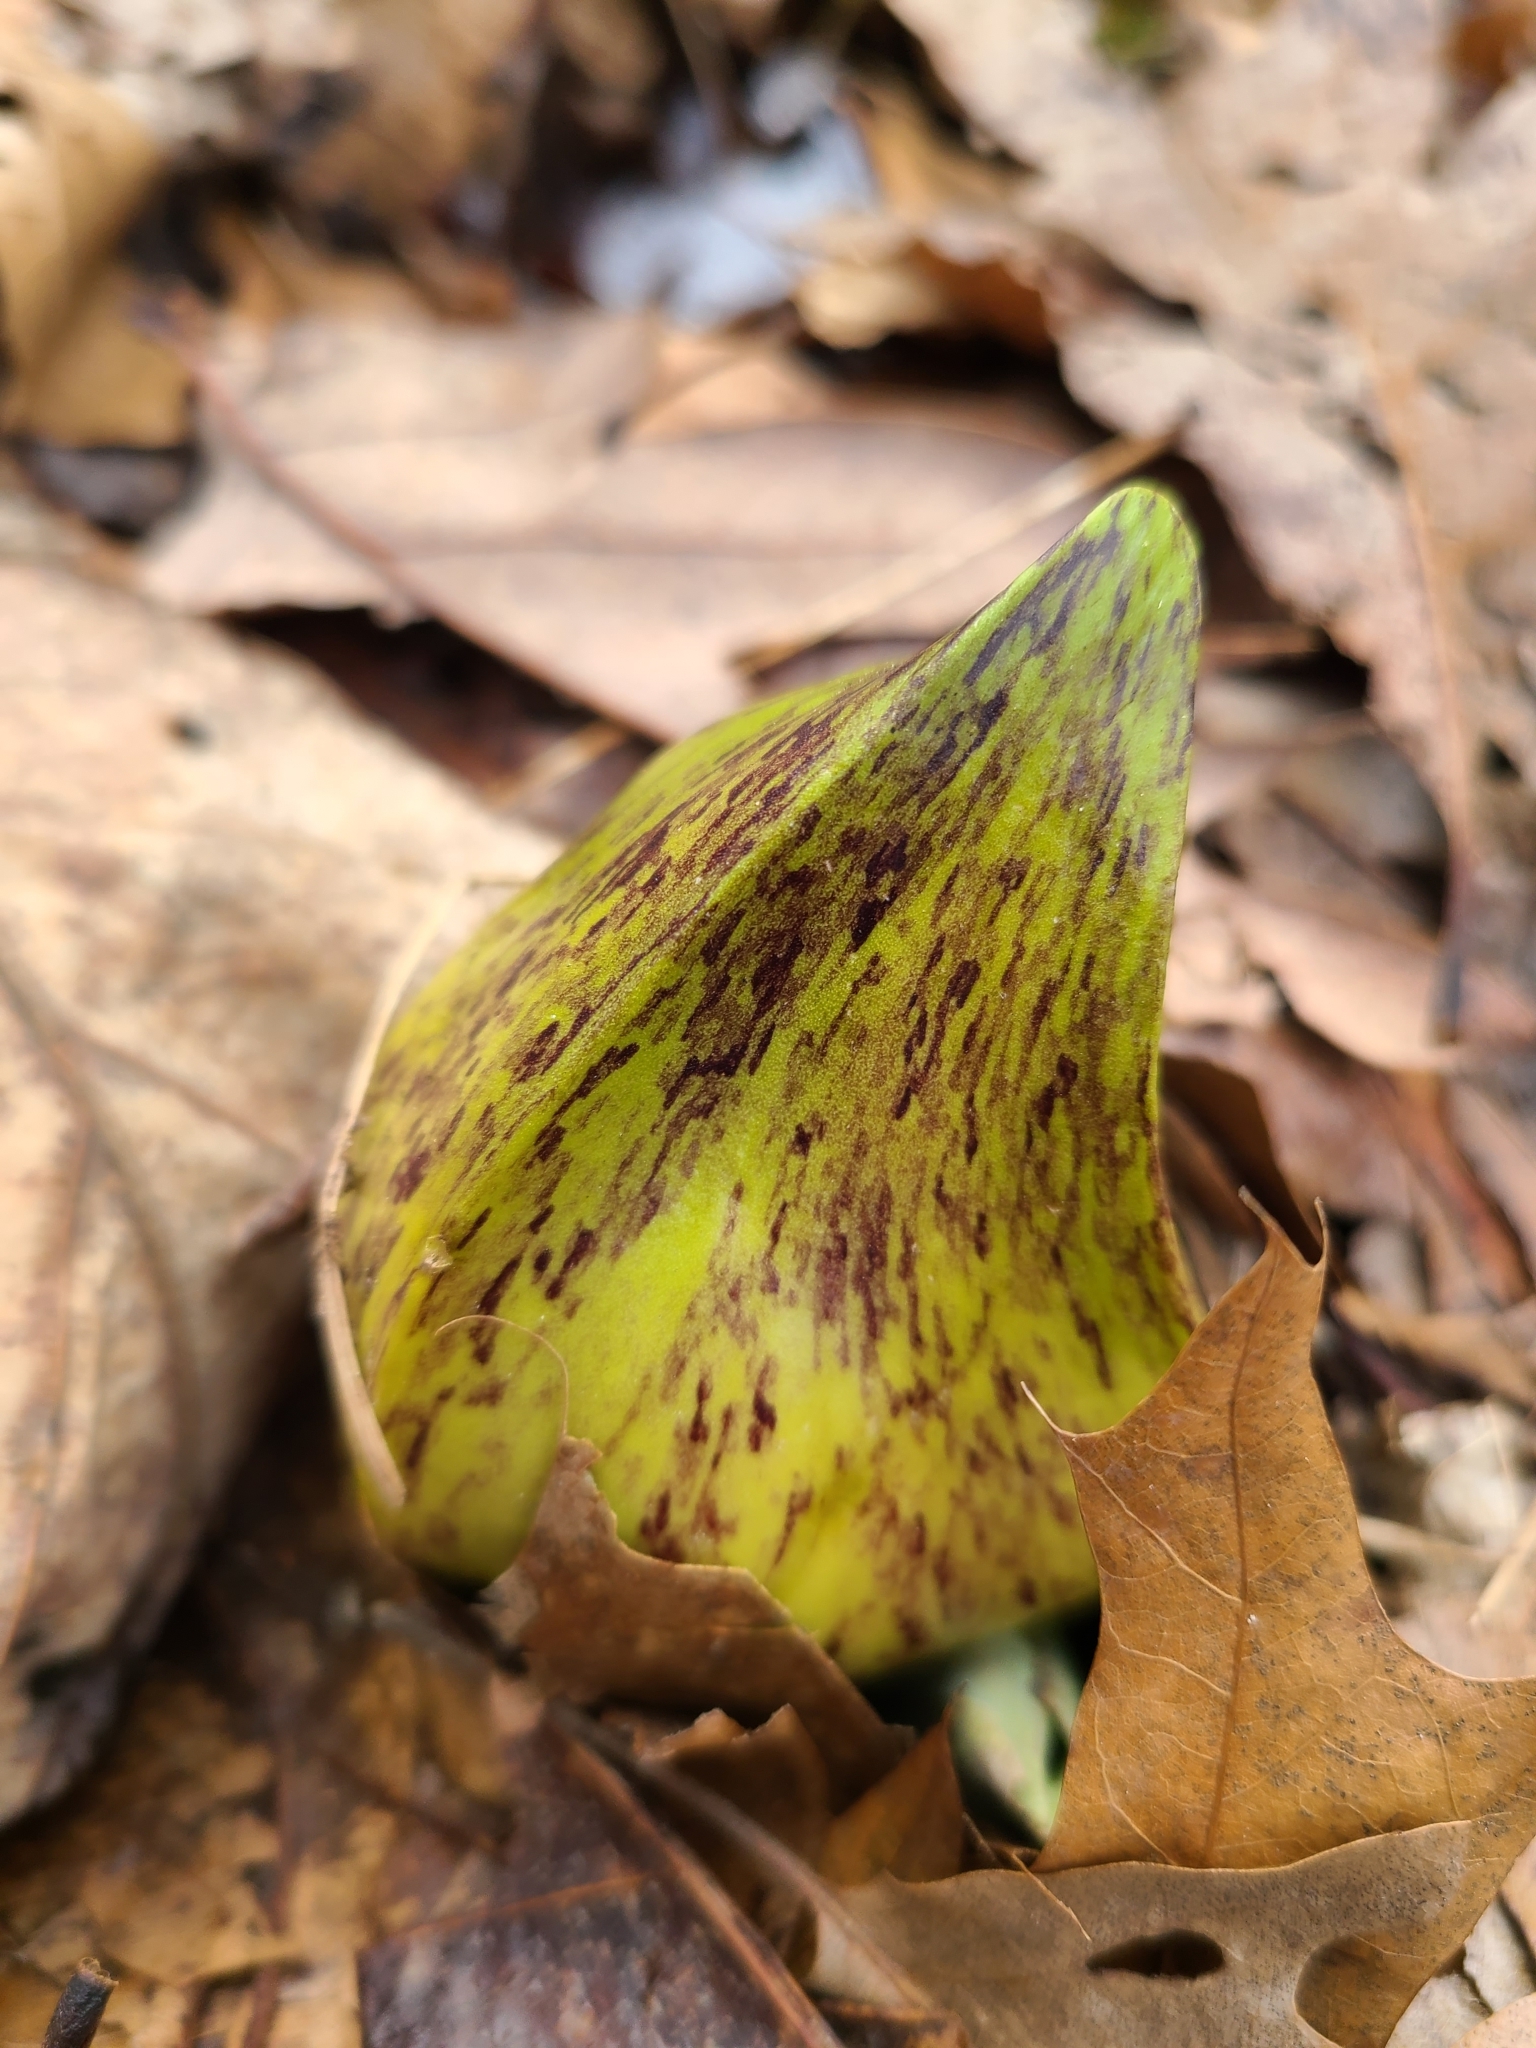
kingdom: Plantae
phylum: Tracheophyta
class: Liliopsida
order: Alismatales
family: Araceae
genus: Symplocarpus
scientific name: Symplocarpus foetidus
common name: Eastern skunk cabbage
